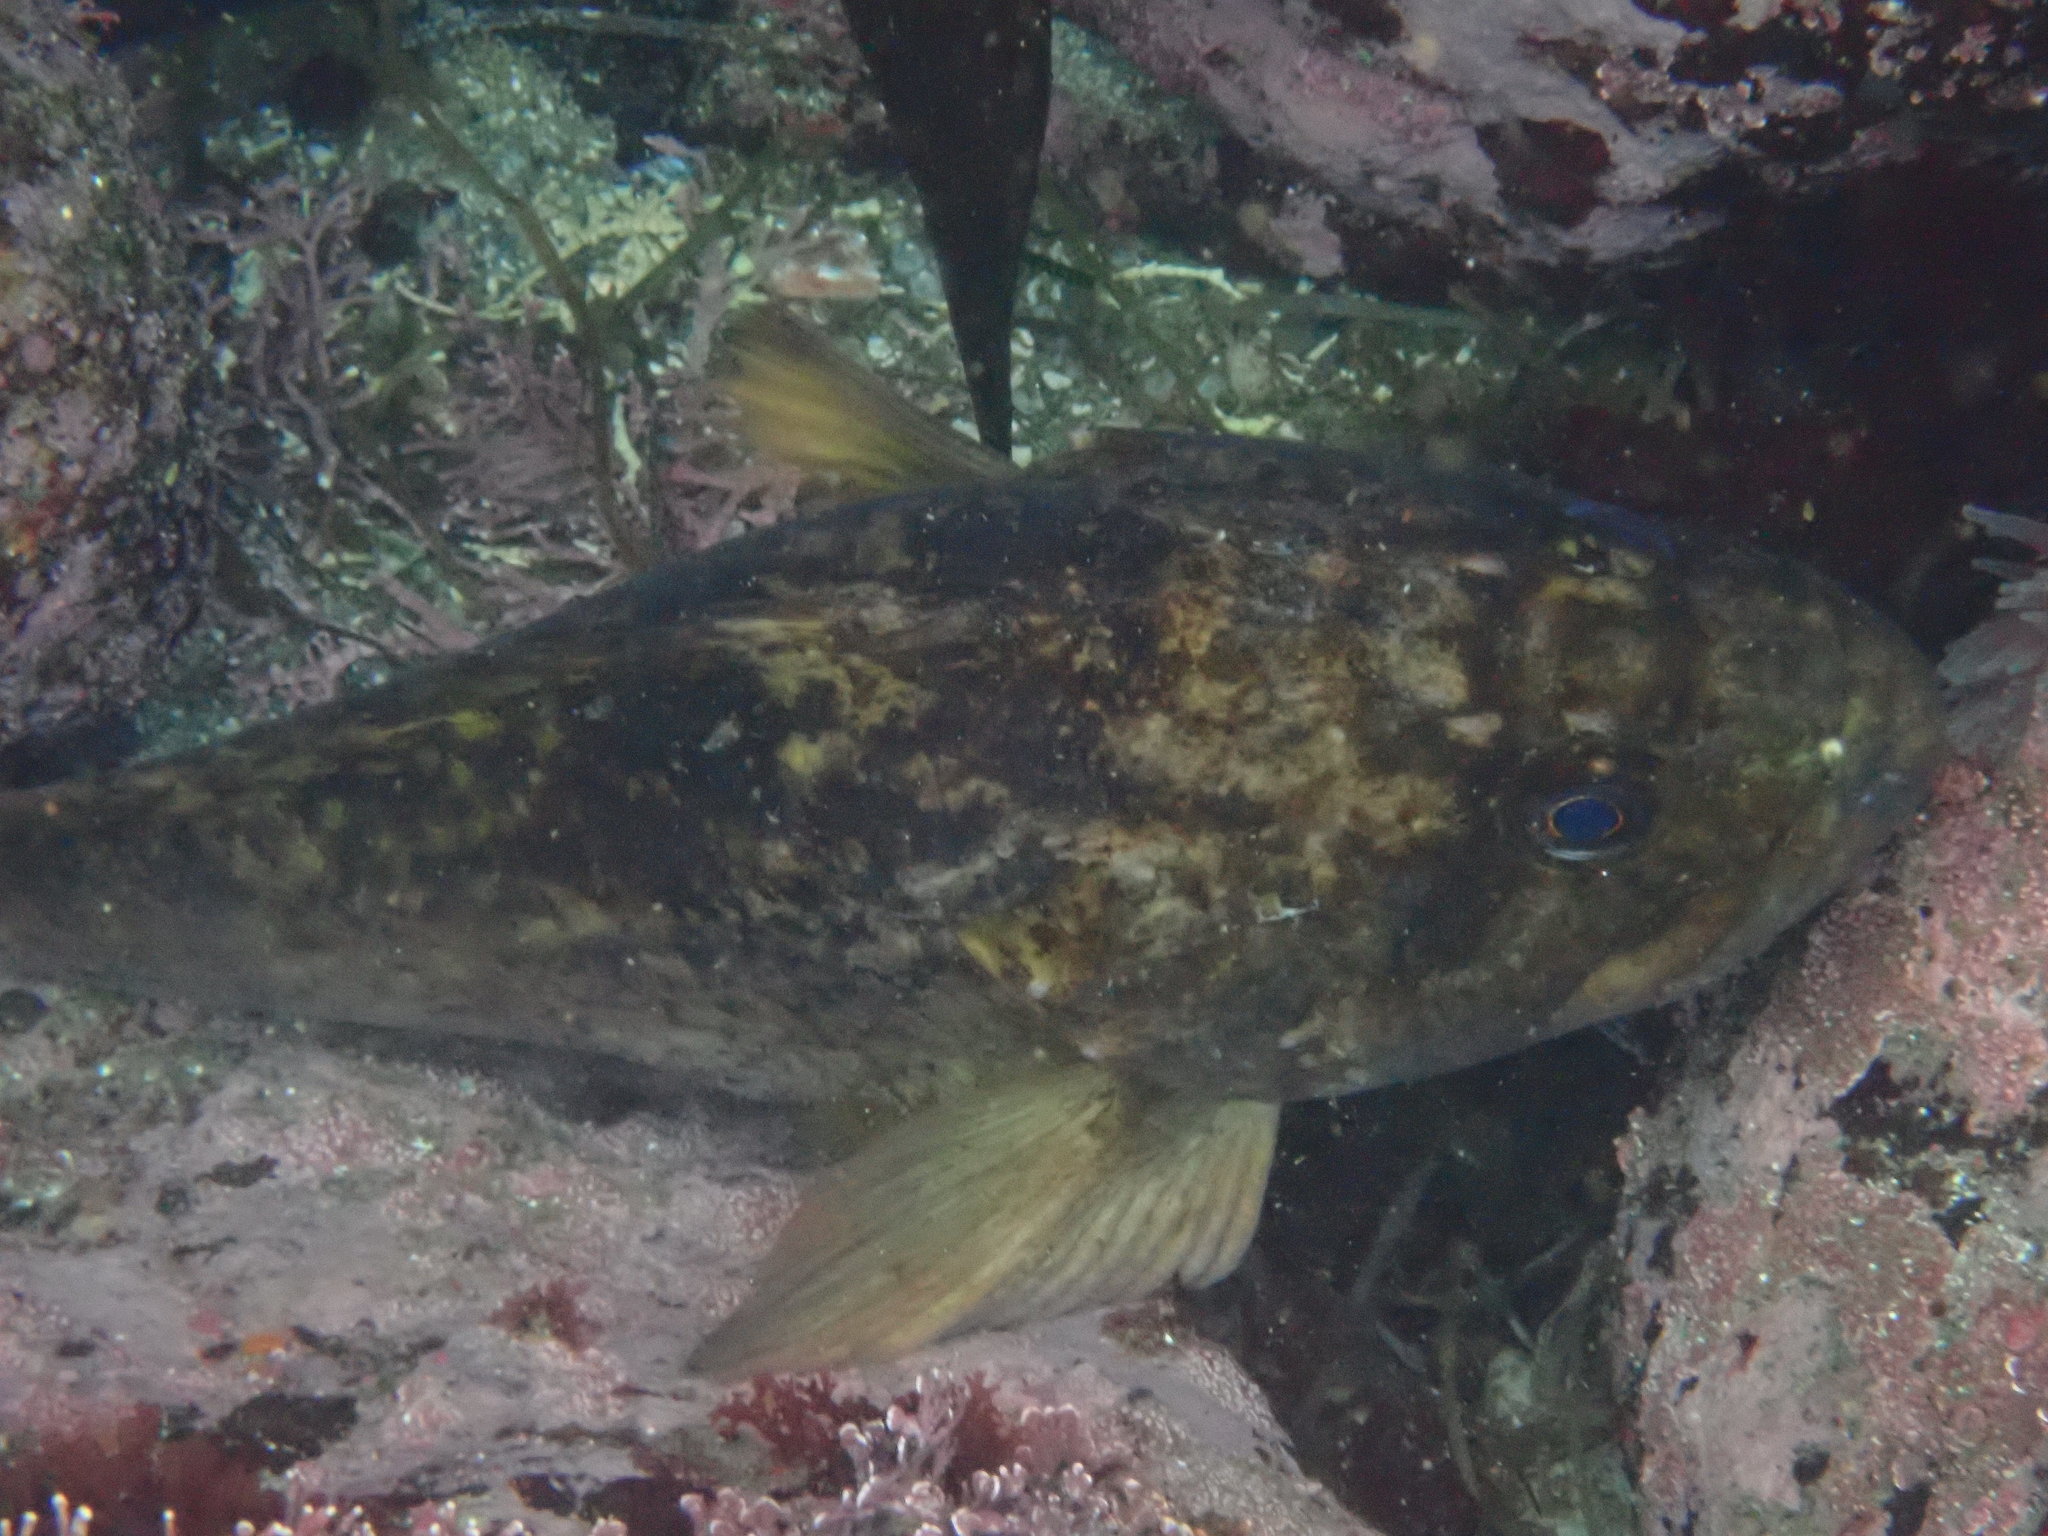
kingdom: Animalia
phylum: Chordata
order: Scorpaeniformes
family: Sebastidae
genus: Sebastes
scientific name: Sebastes rastrelliger
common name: Grass rockfish
